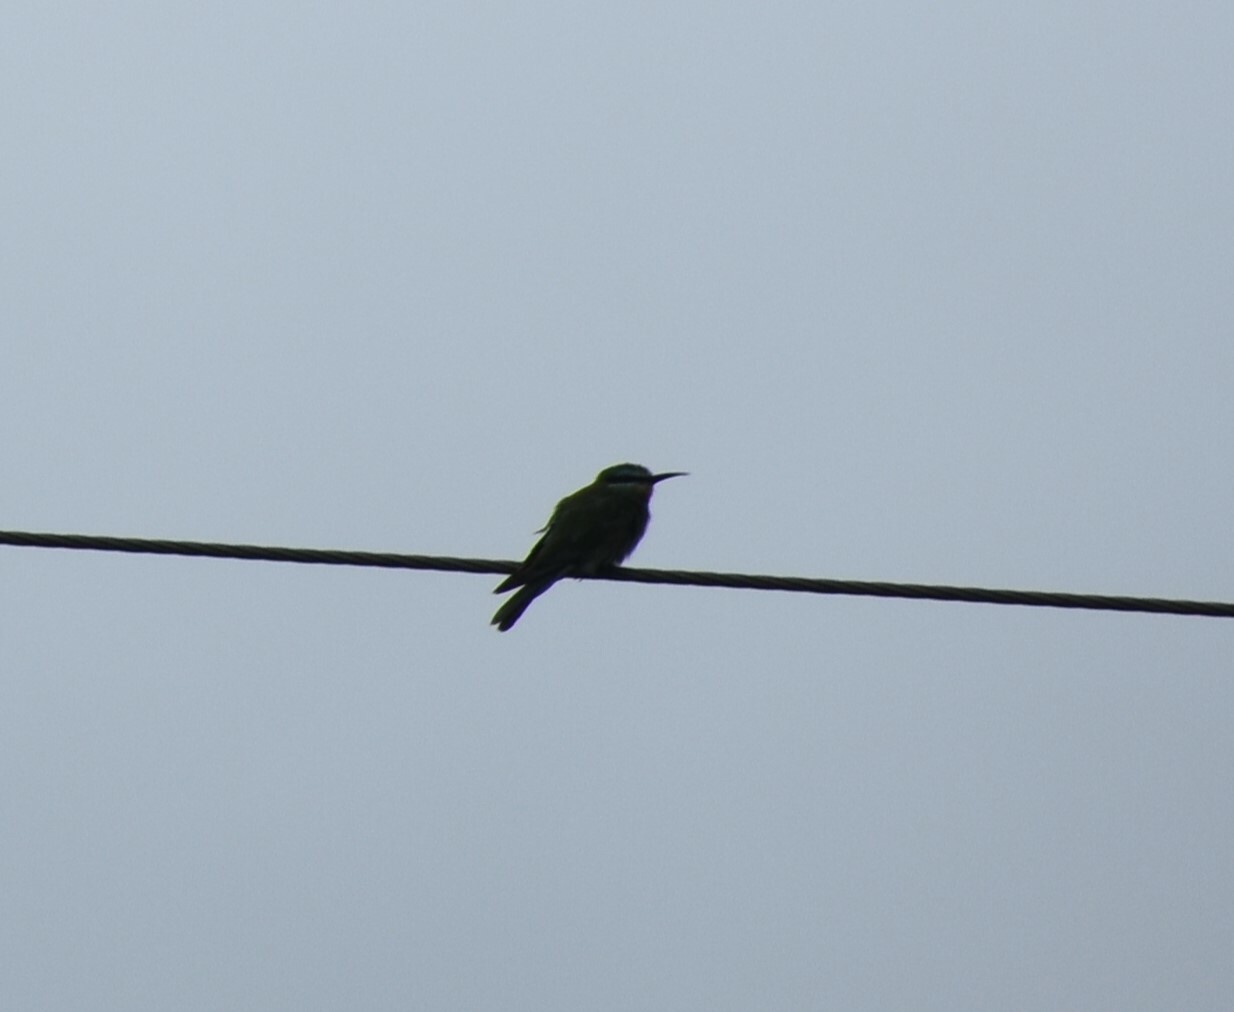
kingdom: Animalia
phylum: Chordata
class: Aves
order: Coraciiformes
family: Meropidae
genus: Merops
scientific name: Merops persicus
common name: Blue-cheeked bee-eater
